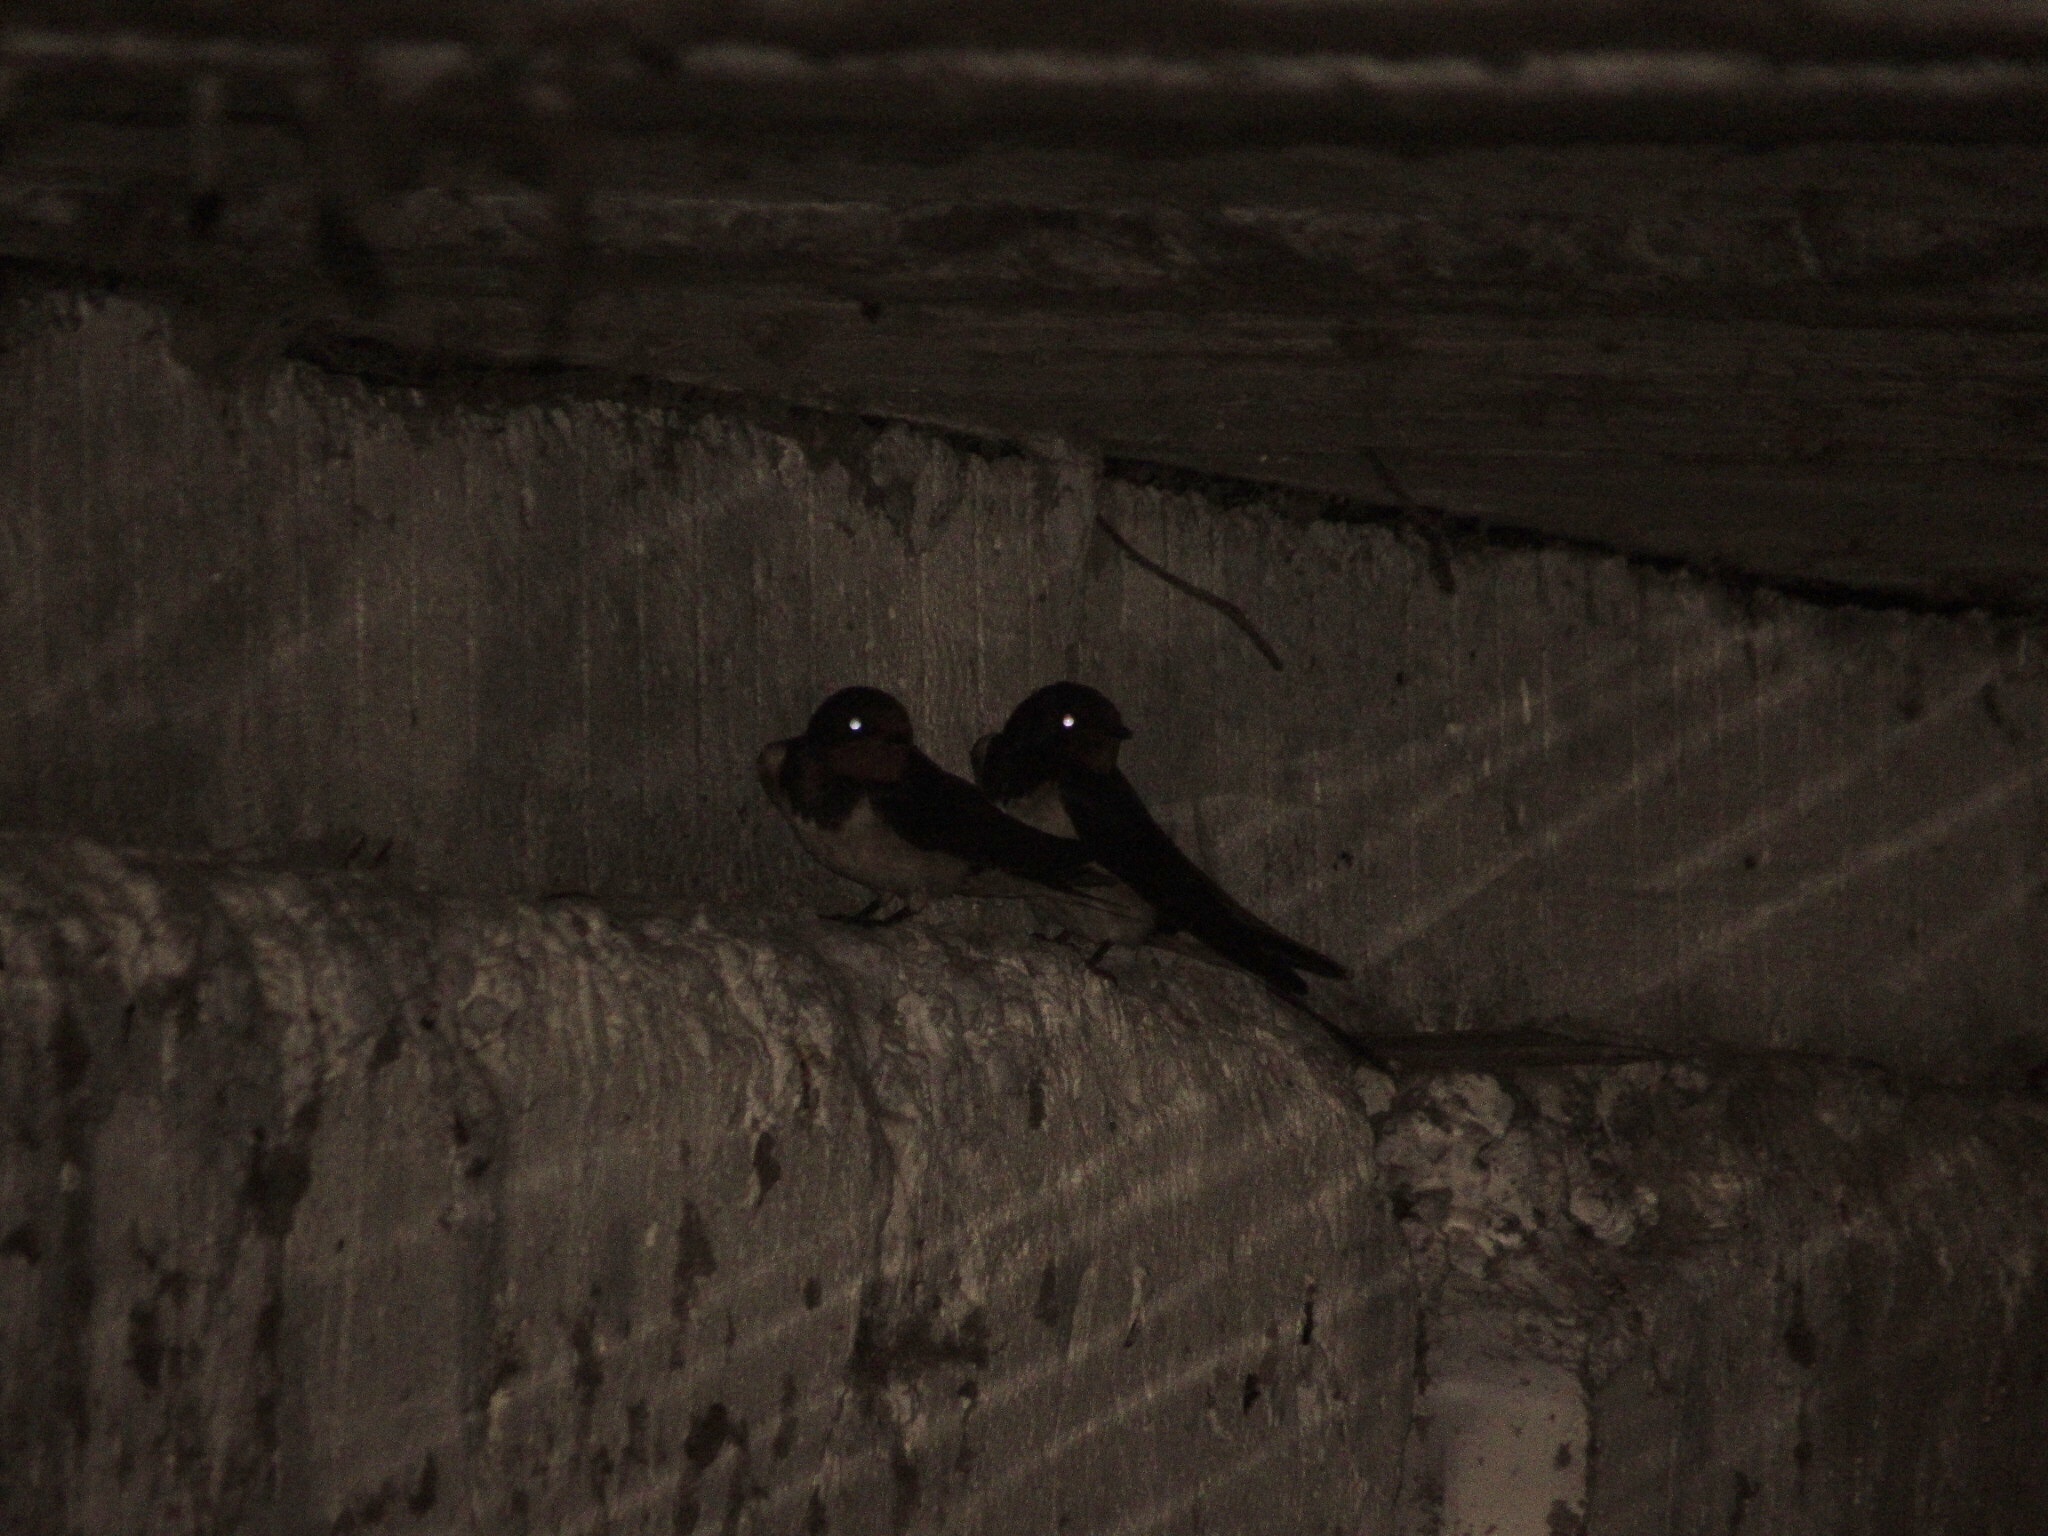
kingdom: Animalia
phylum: Chordata
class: Aves
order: Passeriformes
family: Hirundinidae
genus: Hirundo
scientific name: Hirundo rustica
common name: Barn swallow
